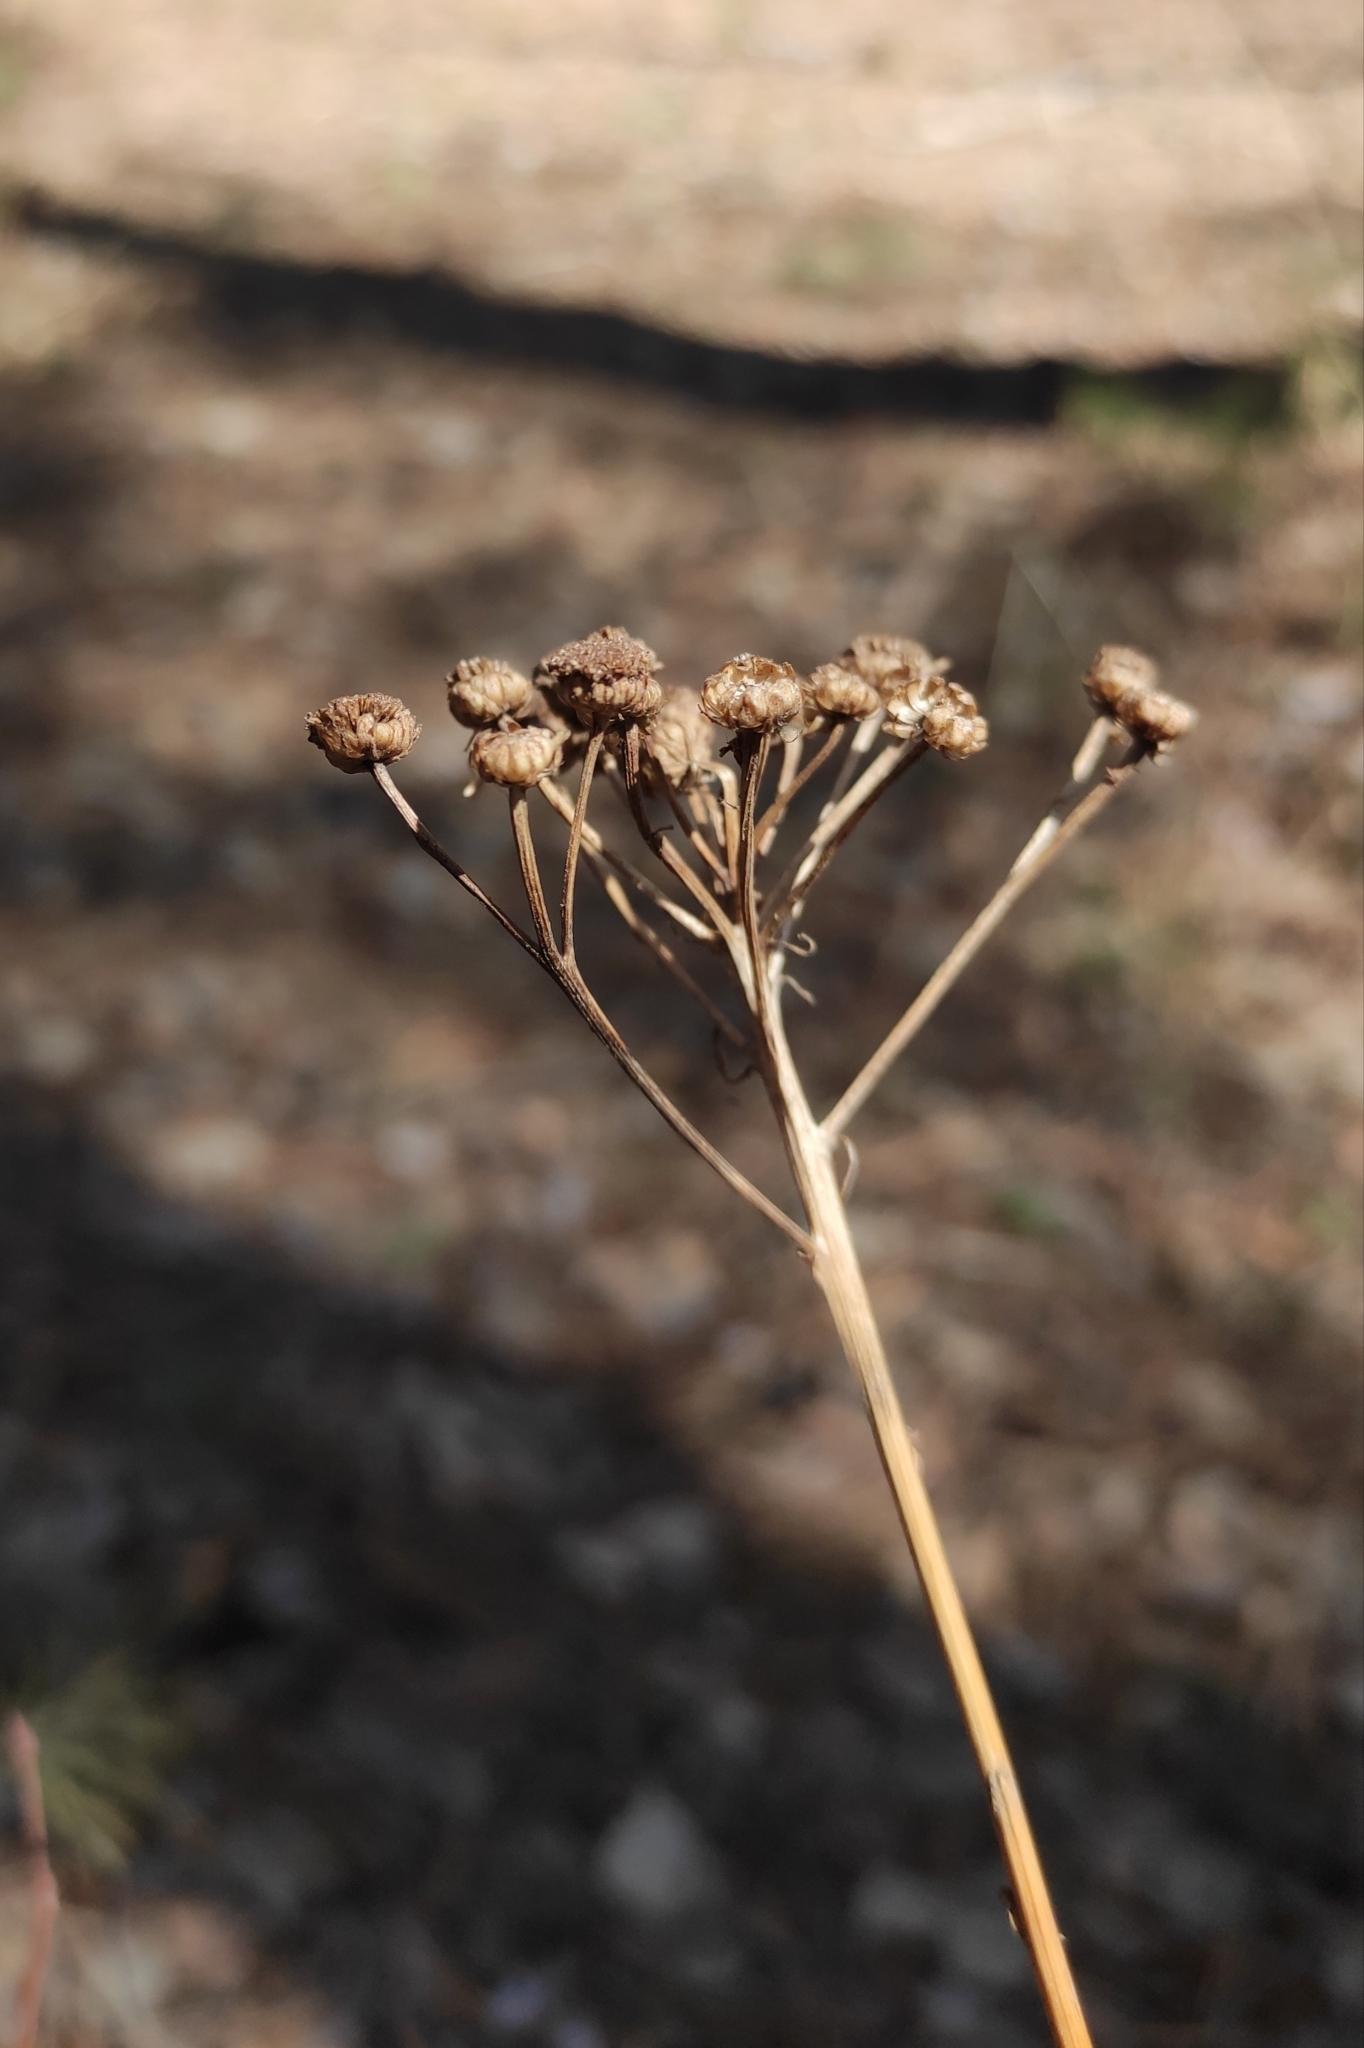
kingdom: Plantae
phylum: Tracheophyta
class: Magnoliopsida
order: Asterales
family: Asteraceae
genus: Tanacetum
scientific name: Tanacetum vulgare
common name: Common tansy
